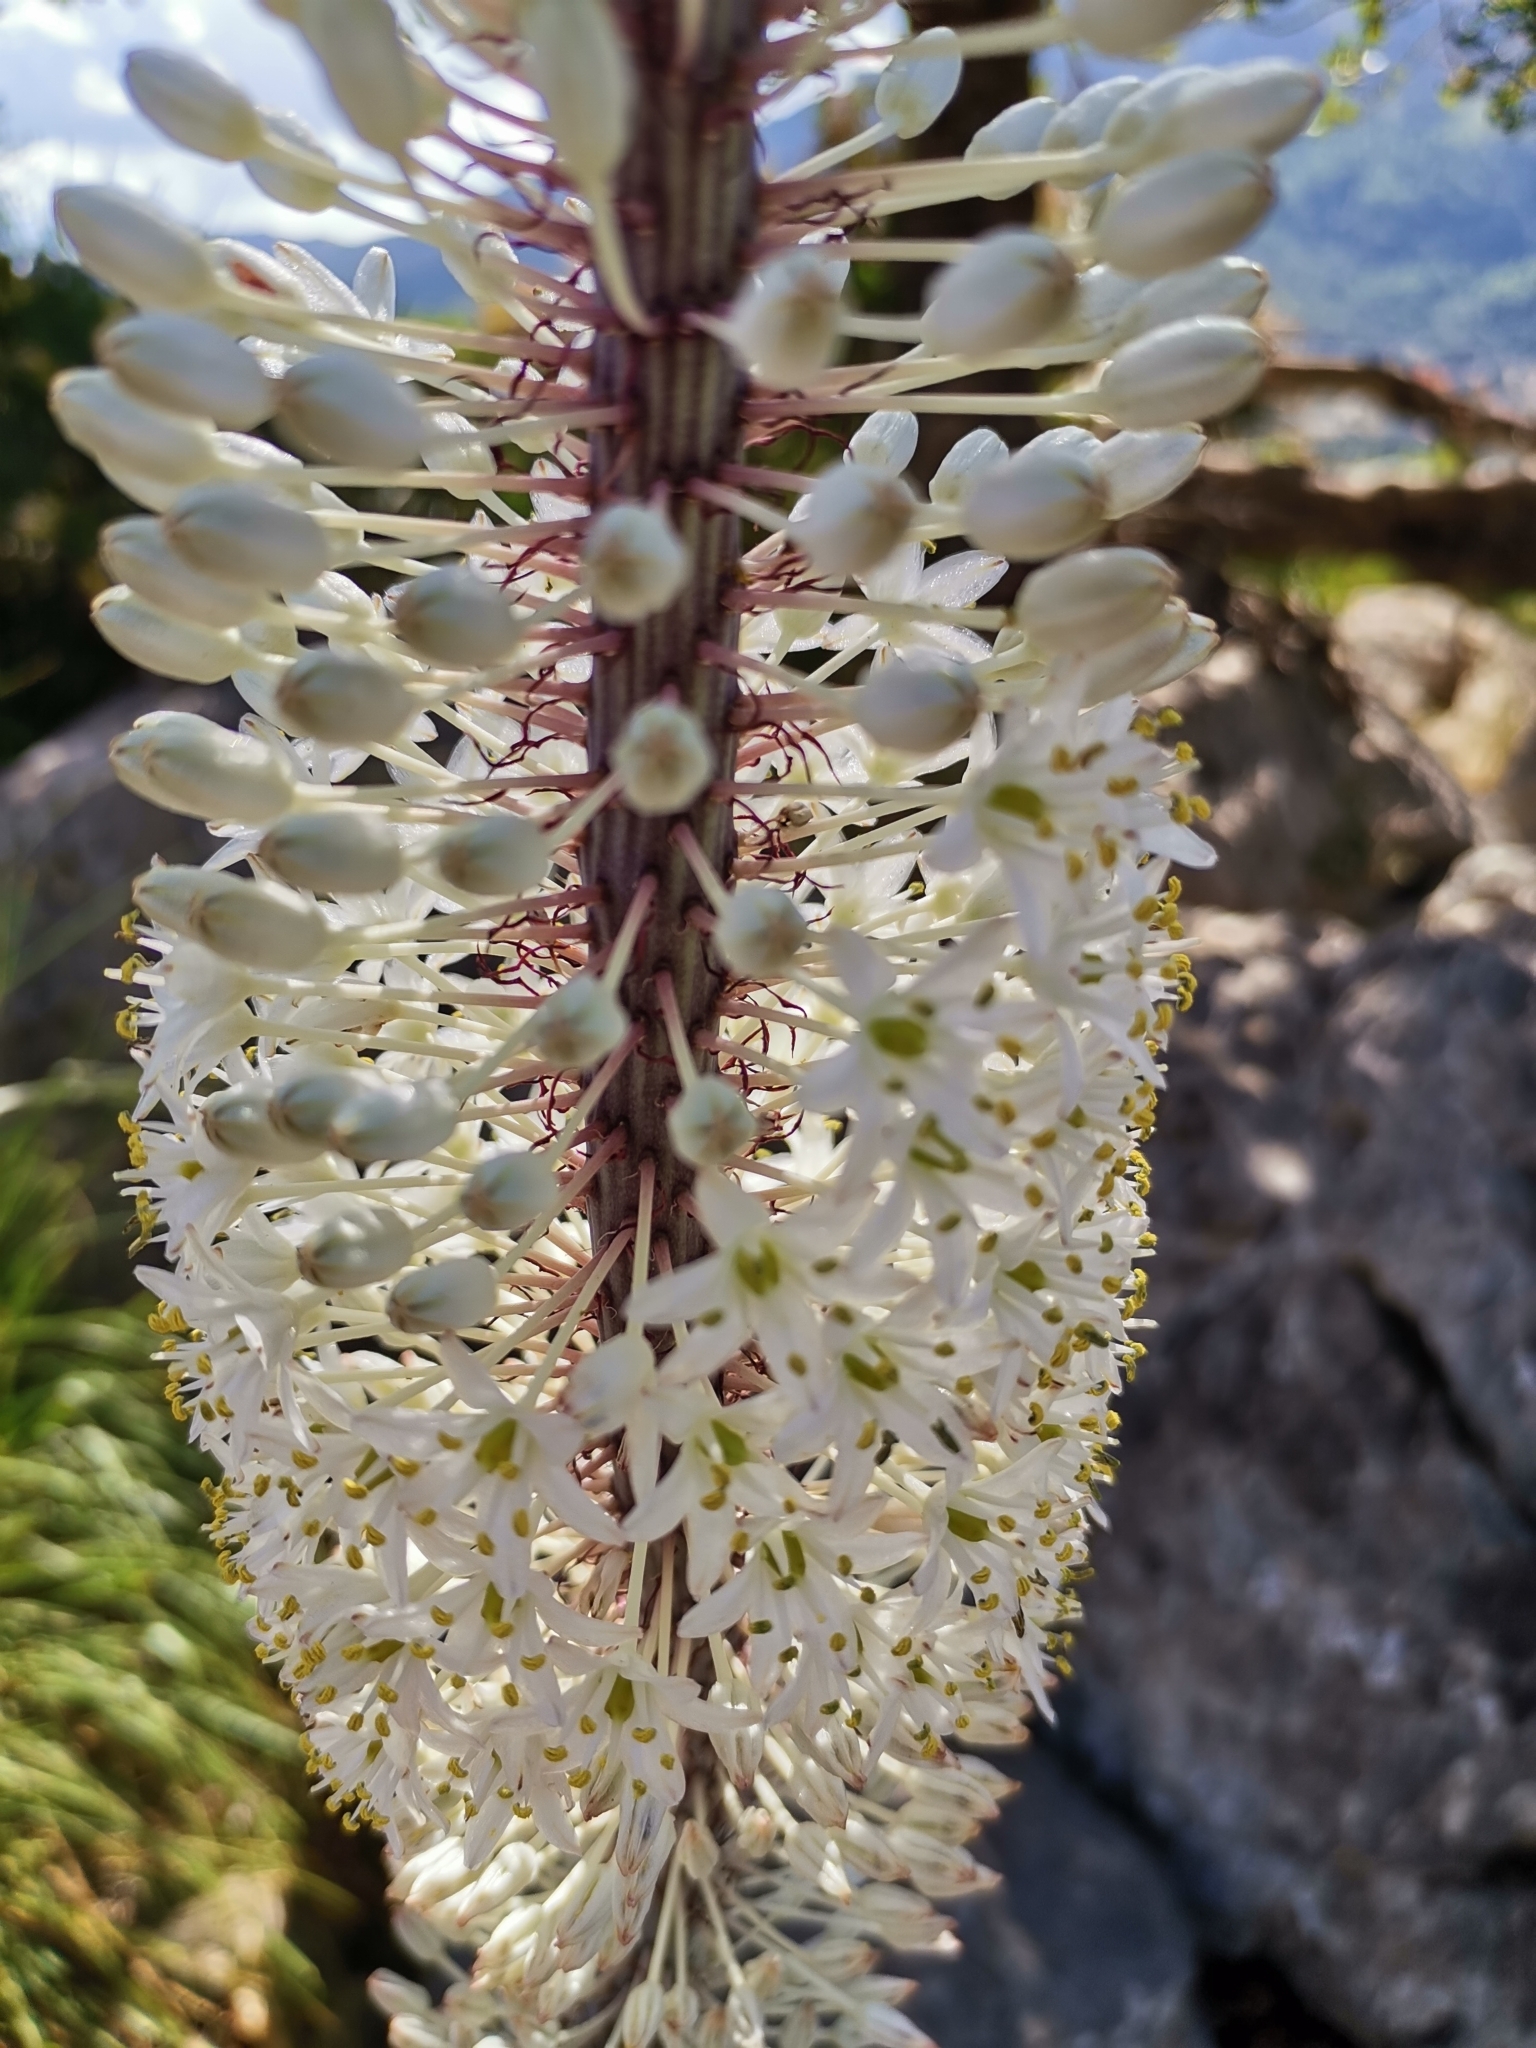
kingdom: Plantae
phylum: Tracheophyta
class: Liliopsida
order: Asparagales
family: Asparagaceae
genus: Drimia
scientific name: Drimia maritima
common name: Maritime squill
